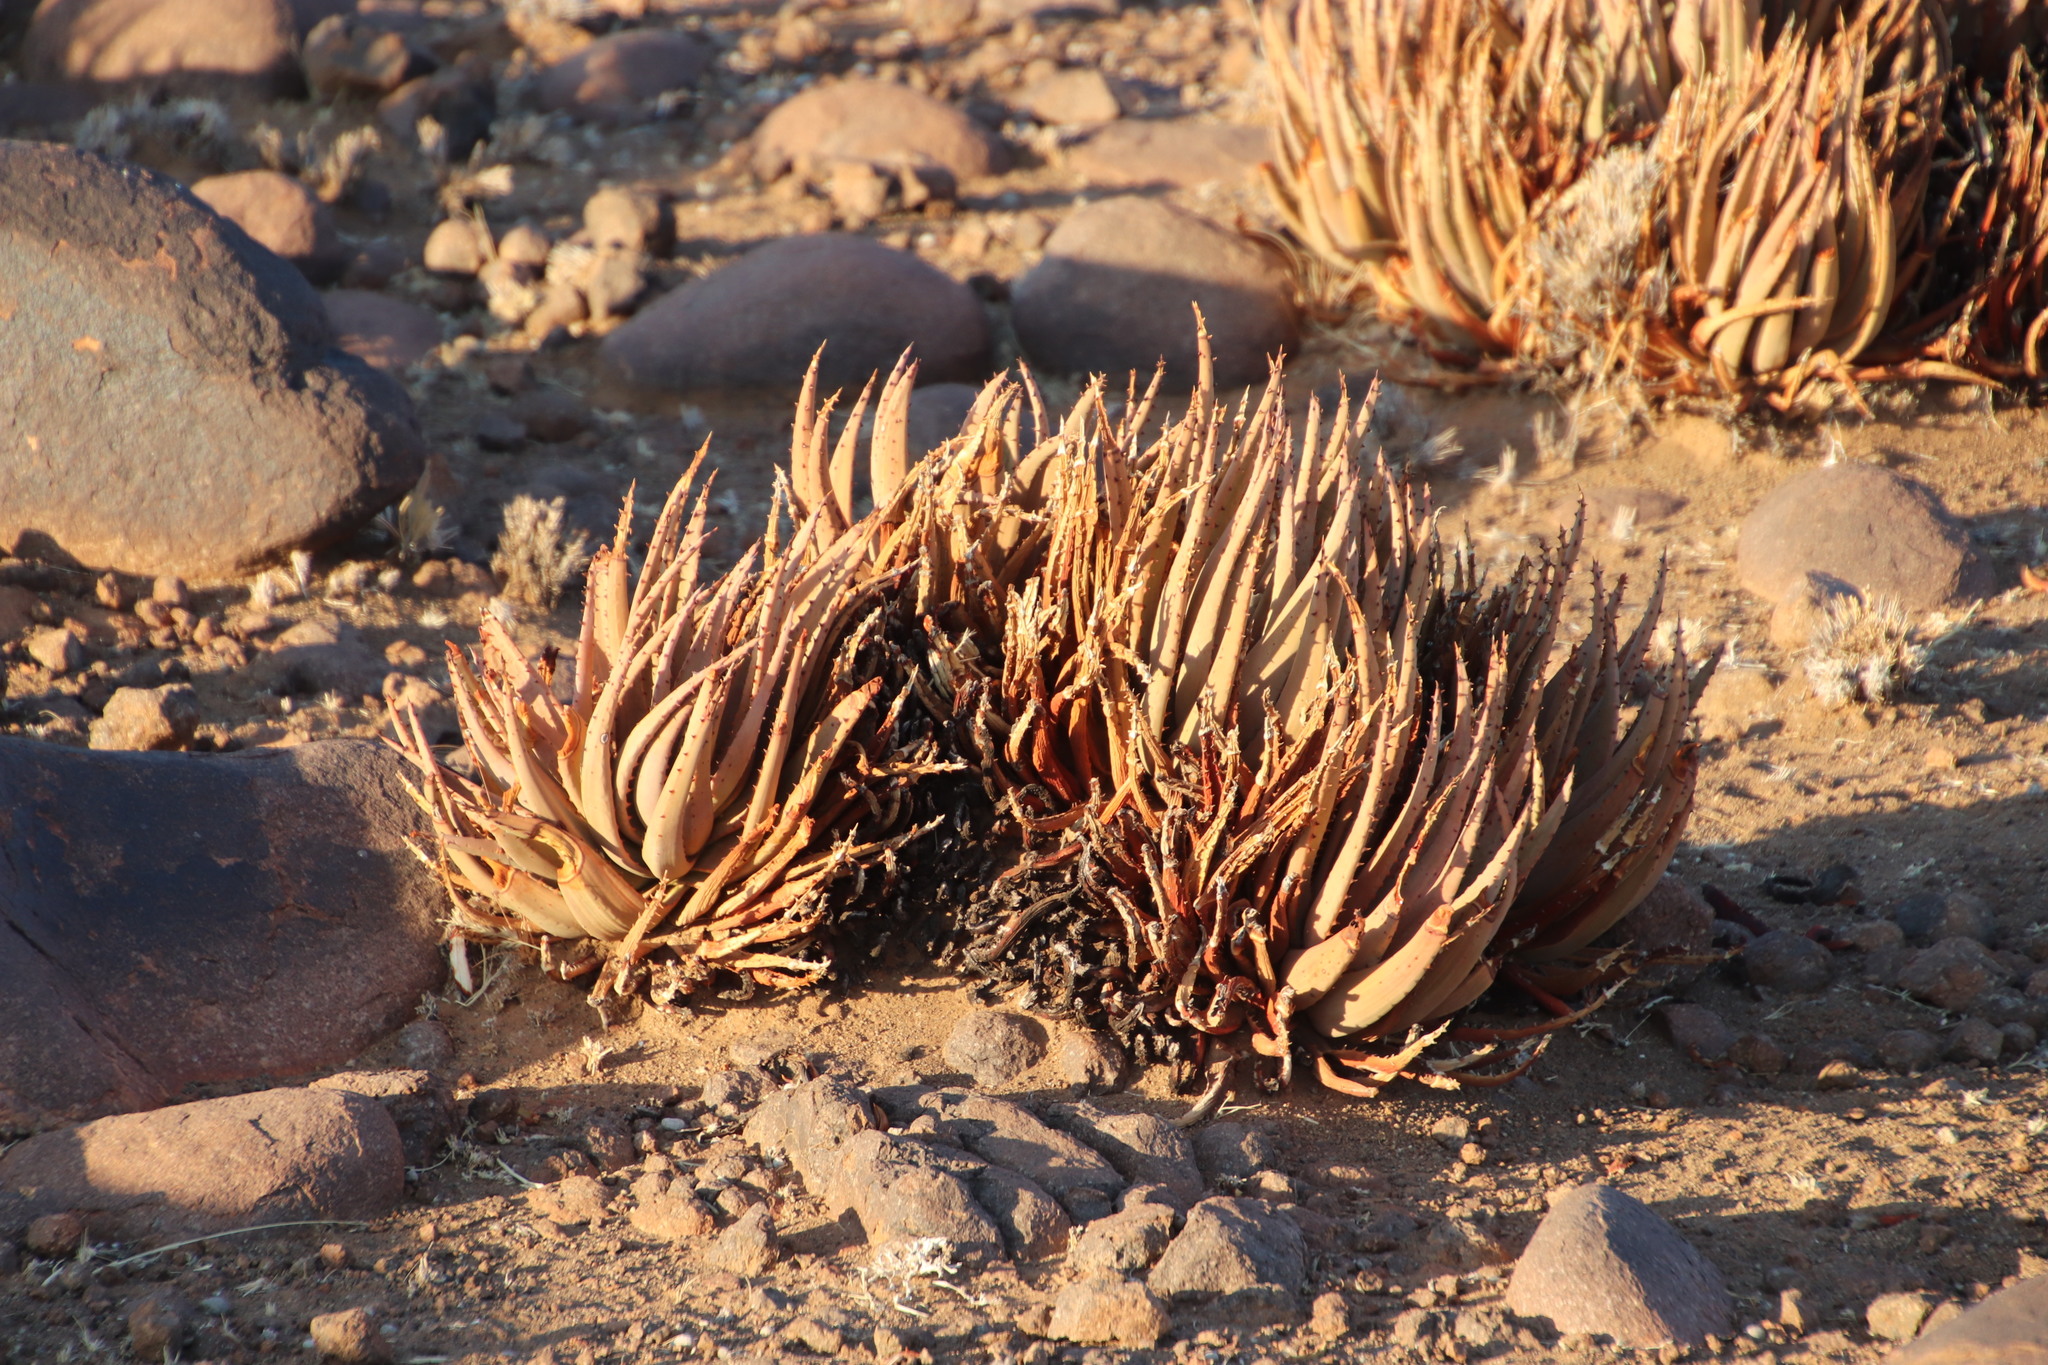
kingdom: Plantae
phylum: Tracheophyta
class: Liliopsida
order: Asparagales
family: Asphodelaceae
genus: Aloe
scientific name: Aloe argenticauda
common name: Silver-tailed aloe
